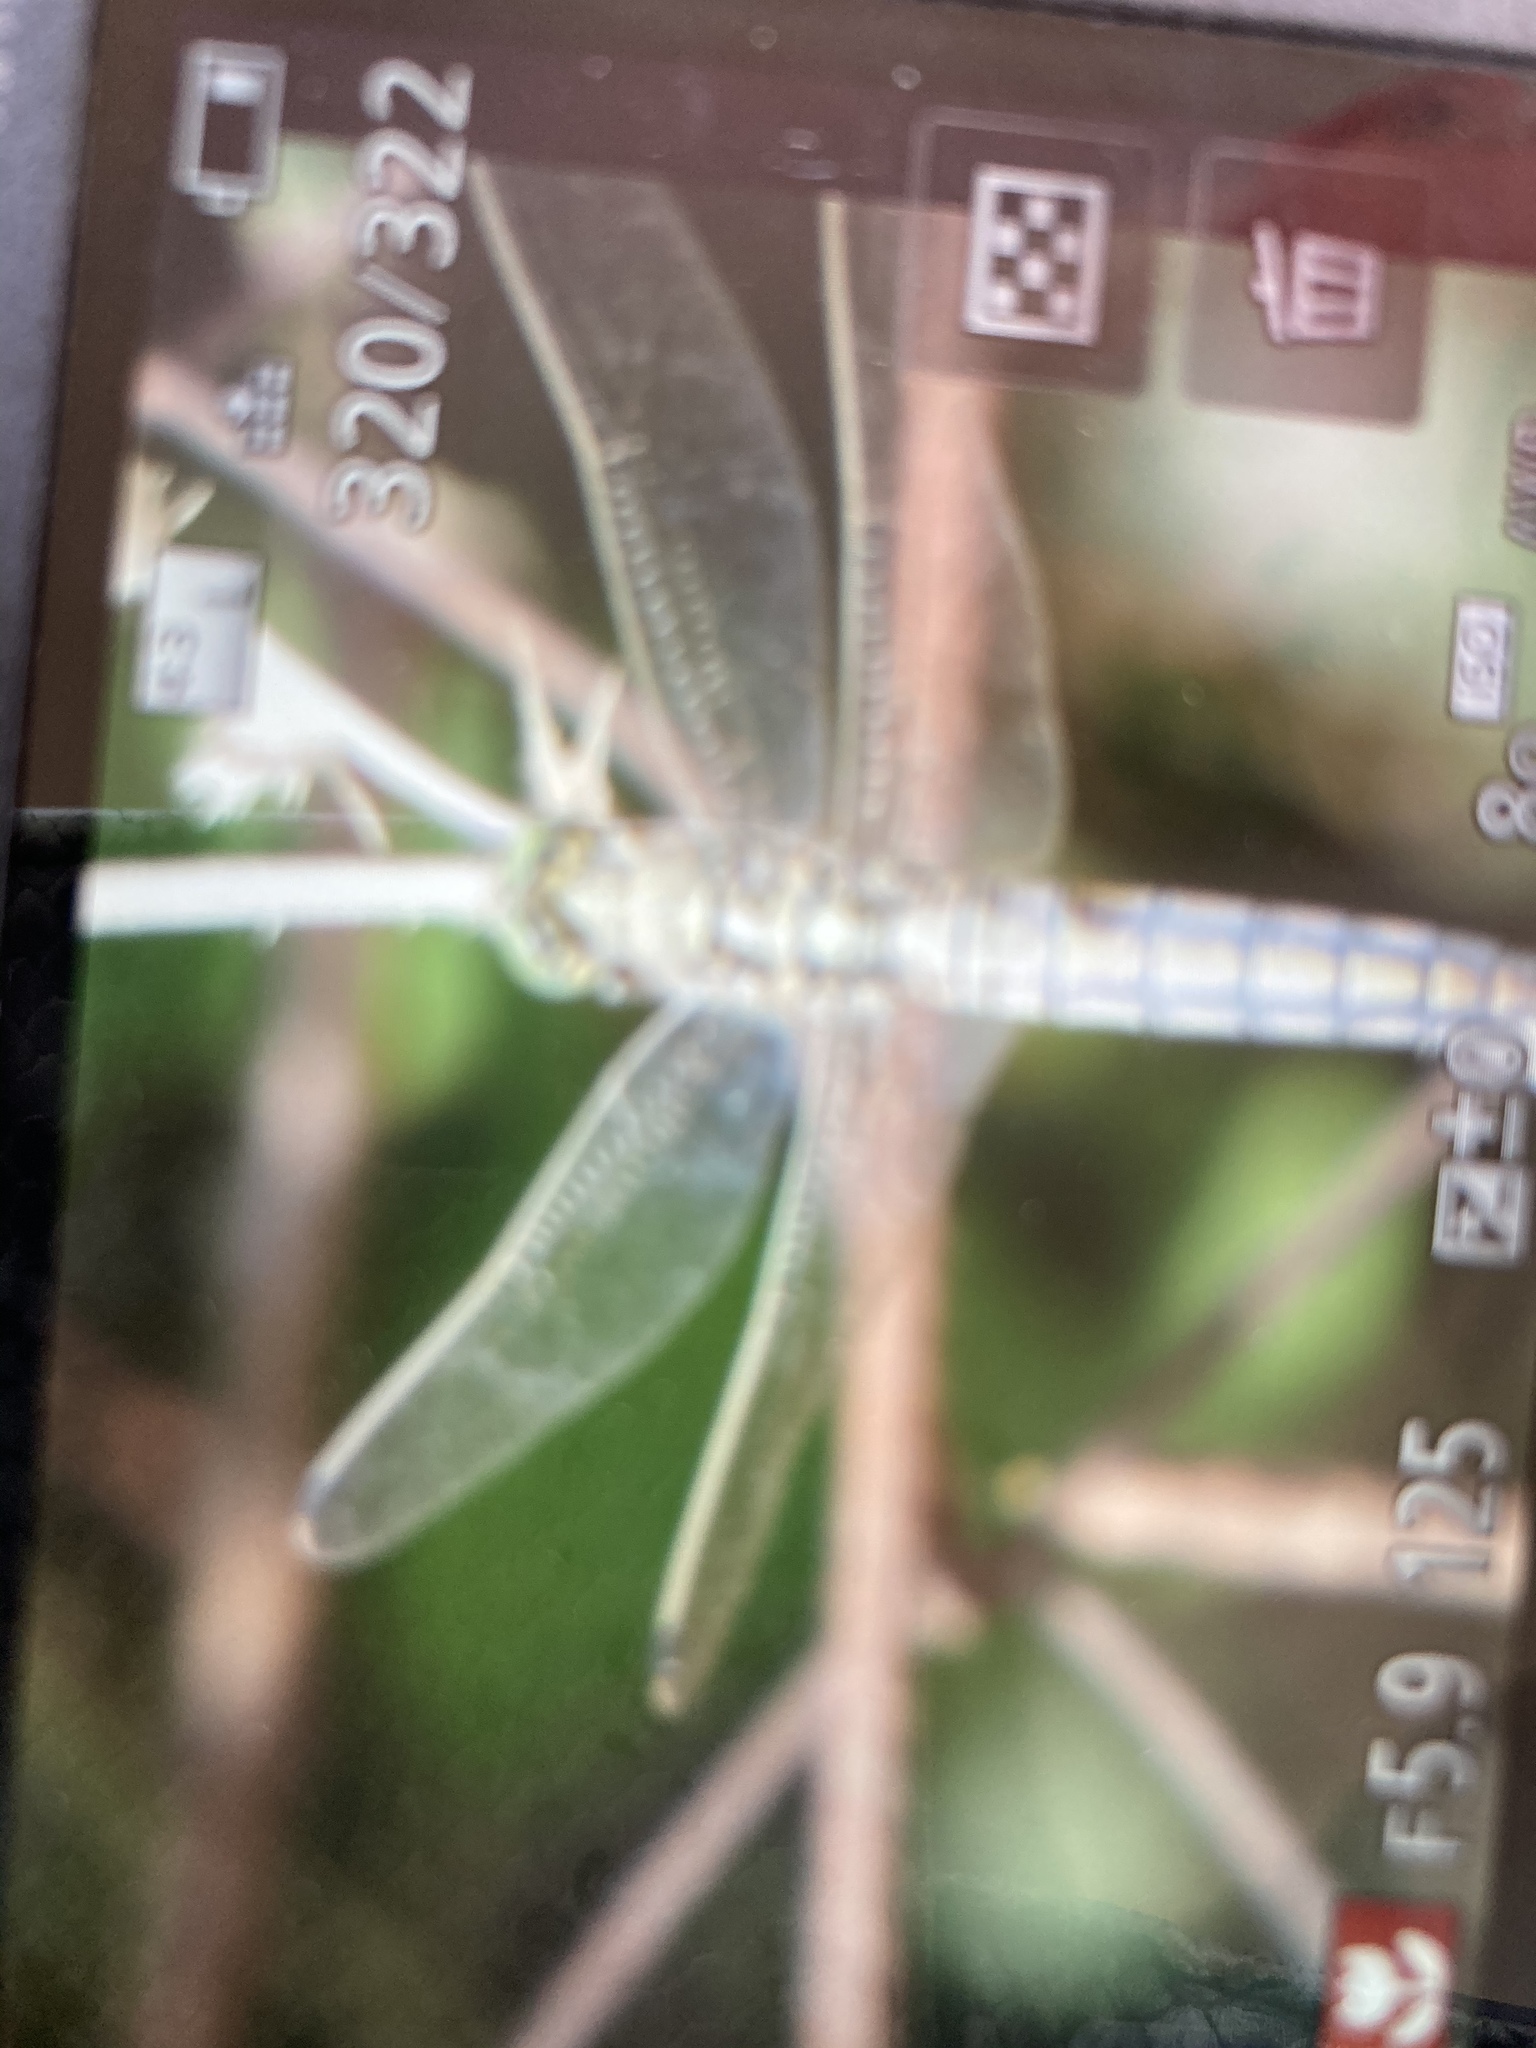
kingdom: Animalia
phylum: Arthropoda
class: Insecta
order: Odonata
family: Libellulidae
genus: Orthetrum
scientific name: Orthetrum
